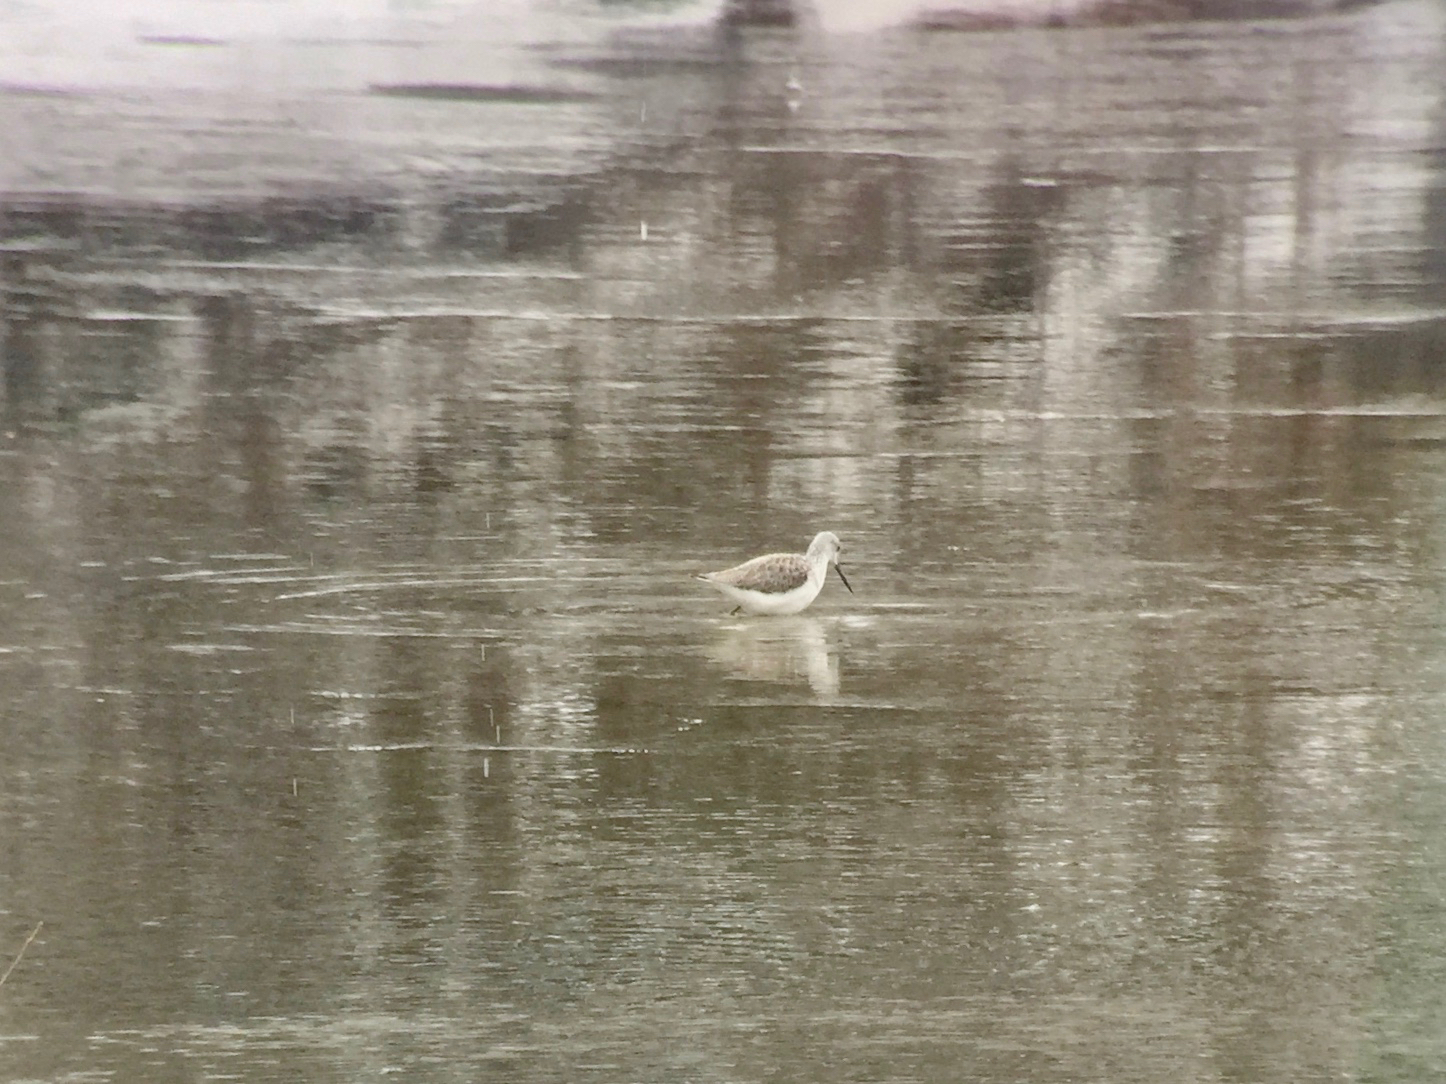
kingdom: Animalia
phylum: Chordata
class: Aves
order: Charadriiformes
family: Scolopacidae
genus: Tringa
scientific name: Tringa stagnatilis
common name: Marsh sandpiper
